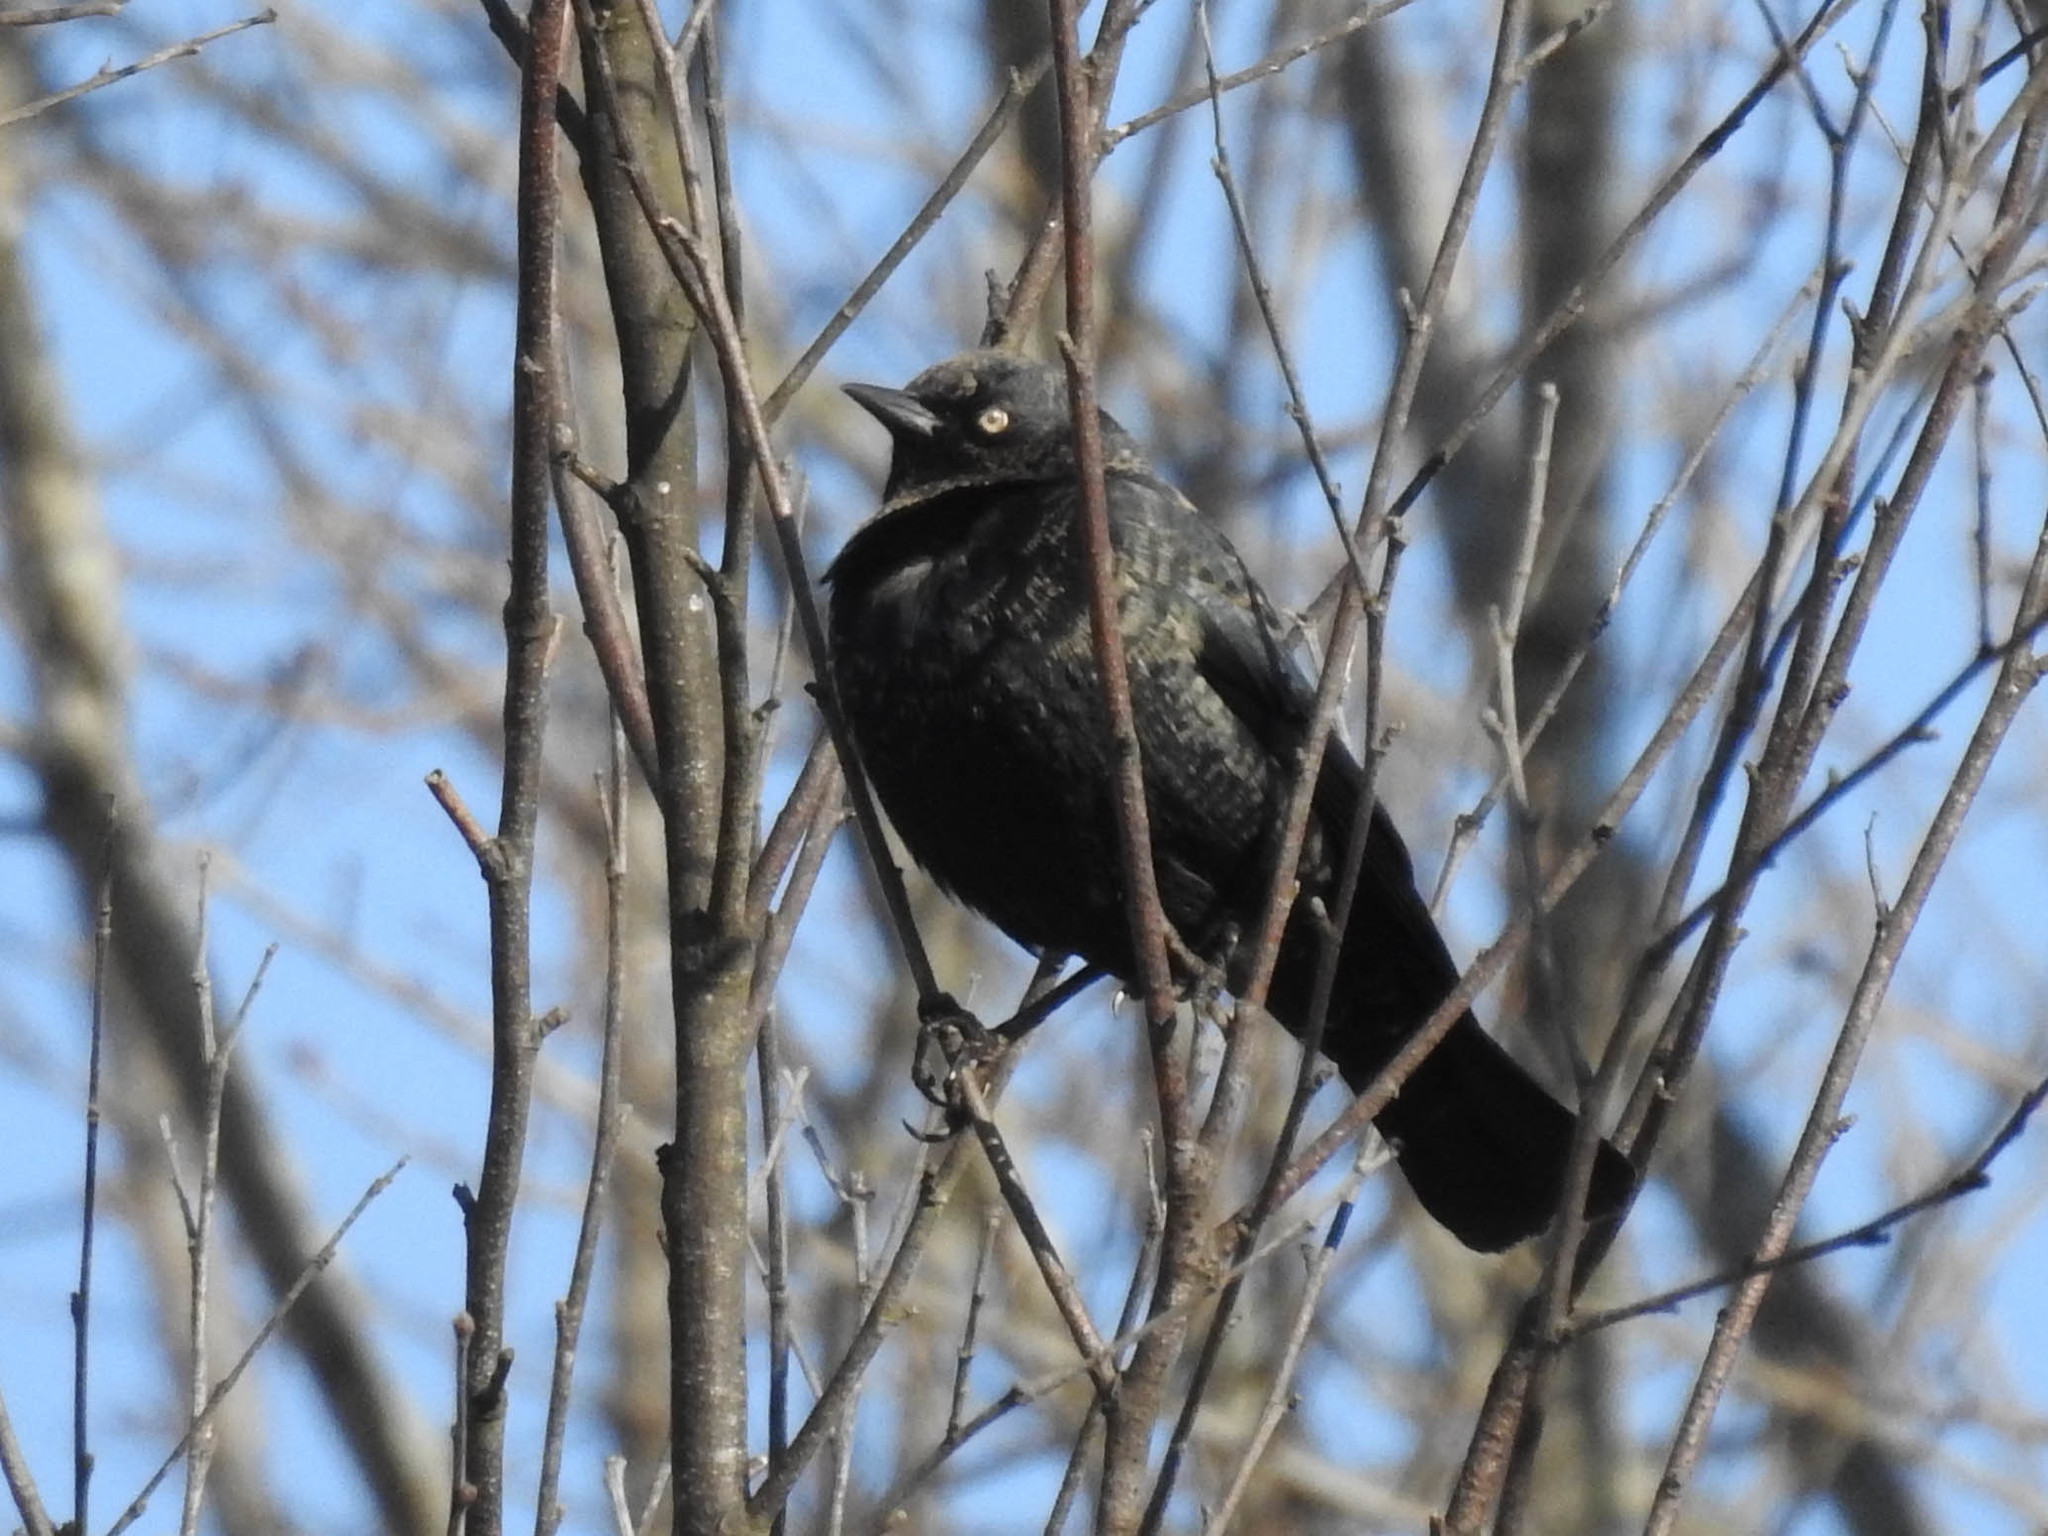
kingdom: Animalia
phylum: Chordata
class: Aves
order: Passeriformes
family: Icteridae
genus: Euphagus
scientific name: Euphagus carolinus
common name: Rusty blackbird
